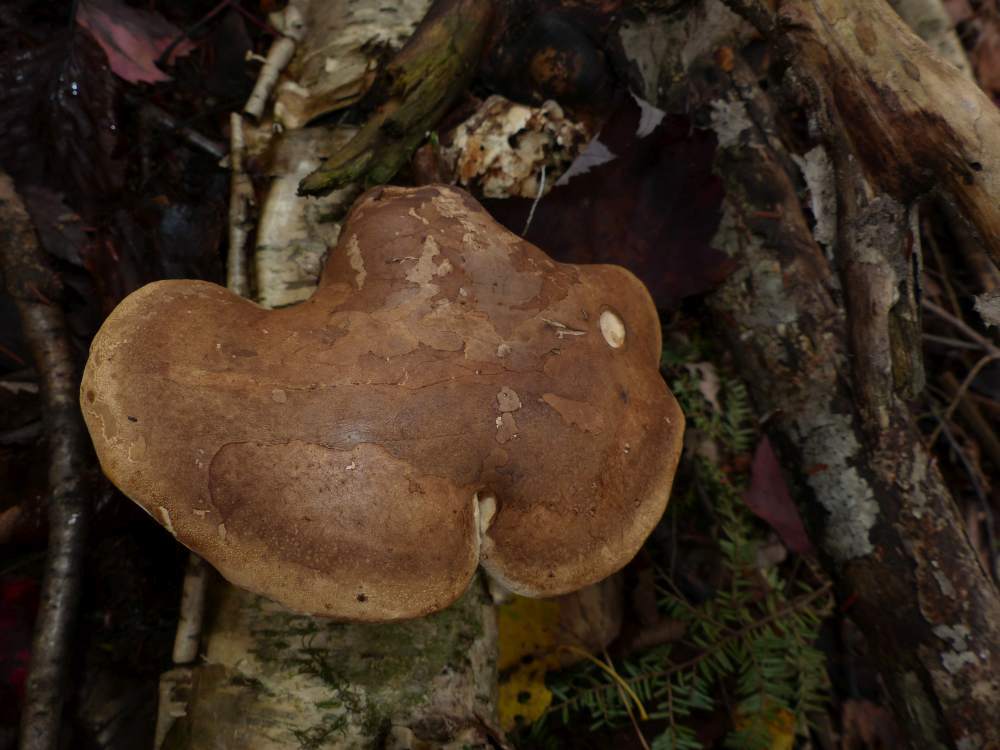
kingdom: Fungi
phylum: Basidiomycota
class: Agaricomycetes
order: Polyporales
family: Fomitopsidaceae
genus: Fomitopsis
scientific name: Fomitopsis betulina
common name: Birch polypore
